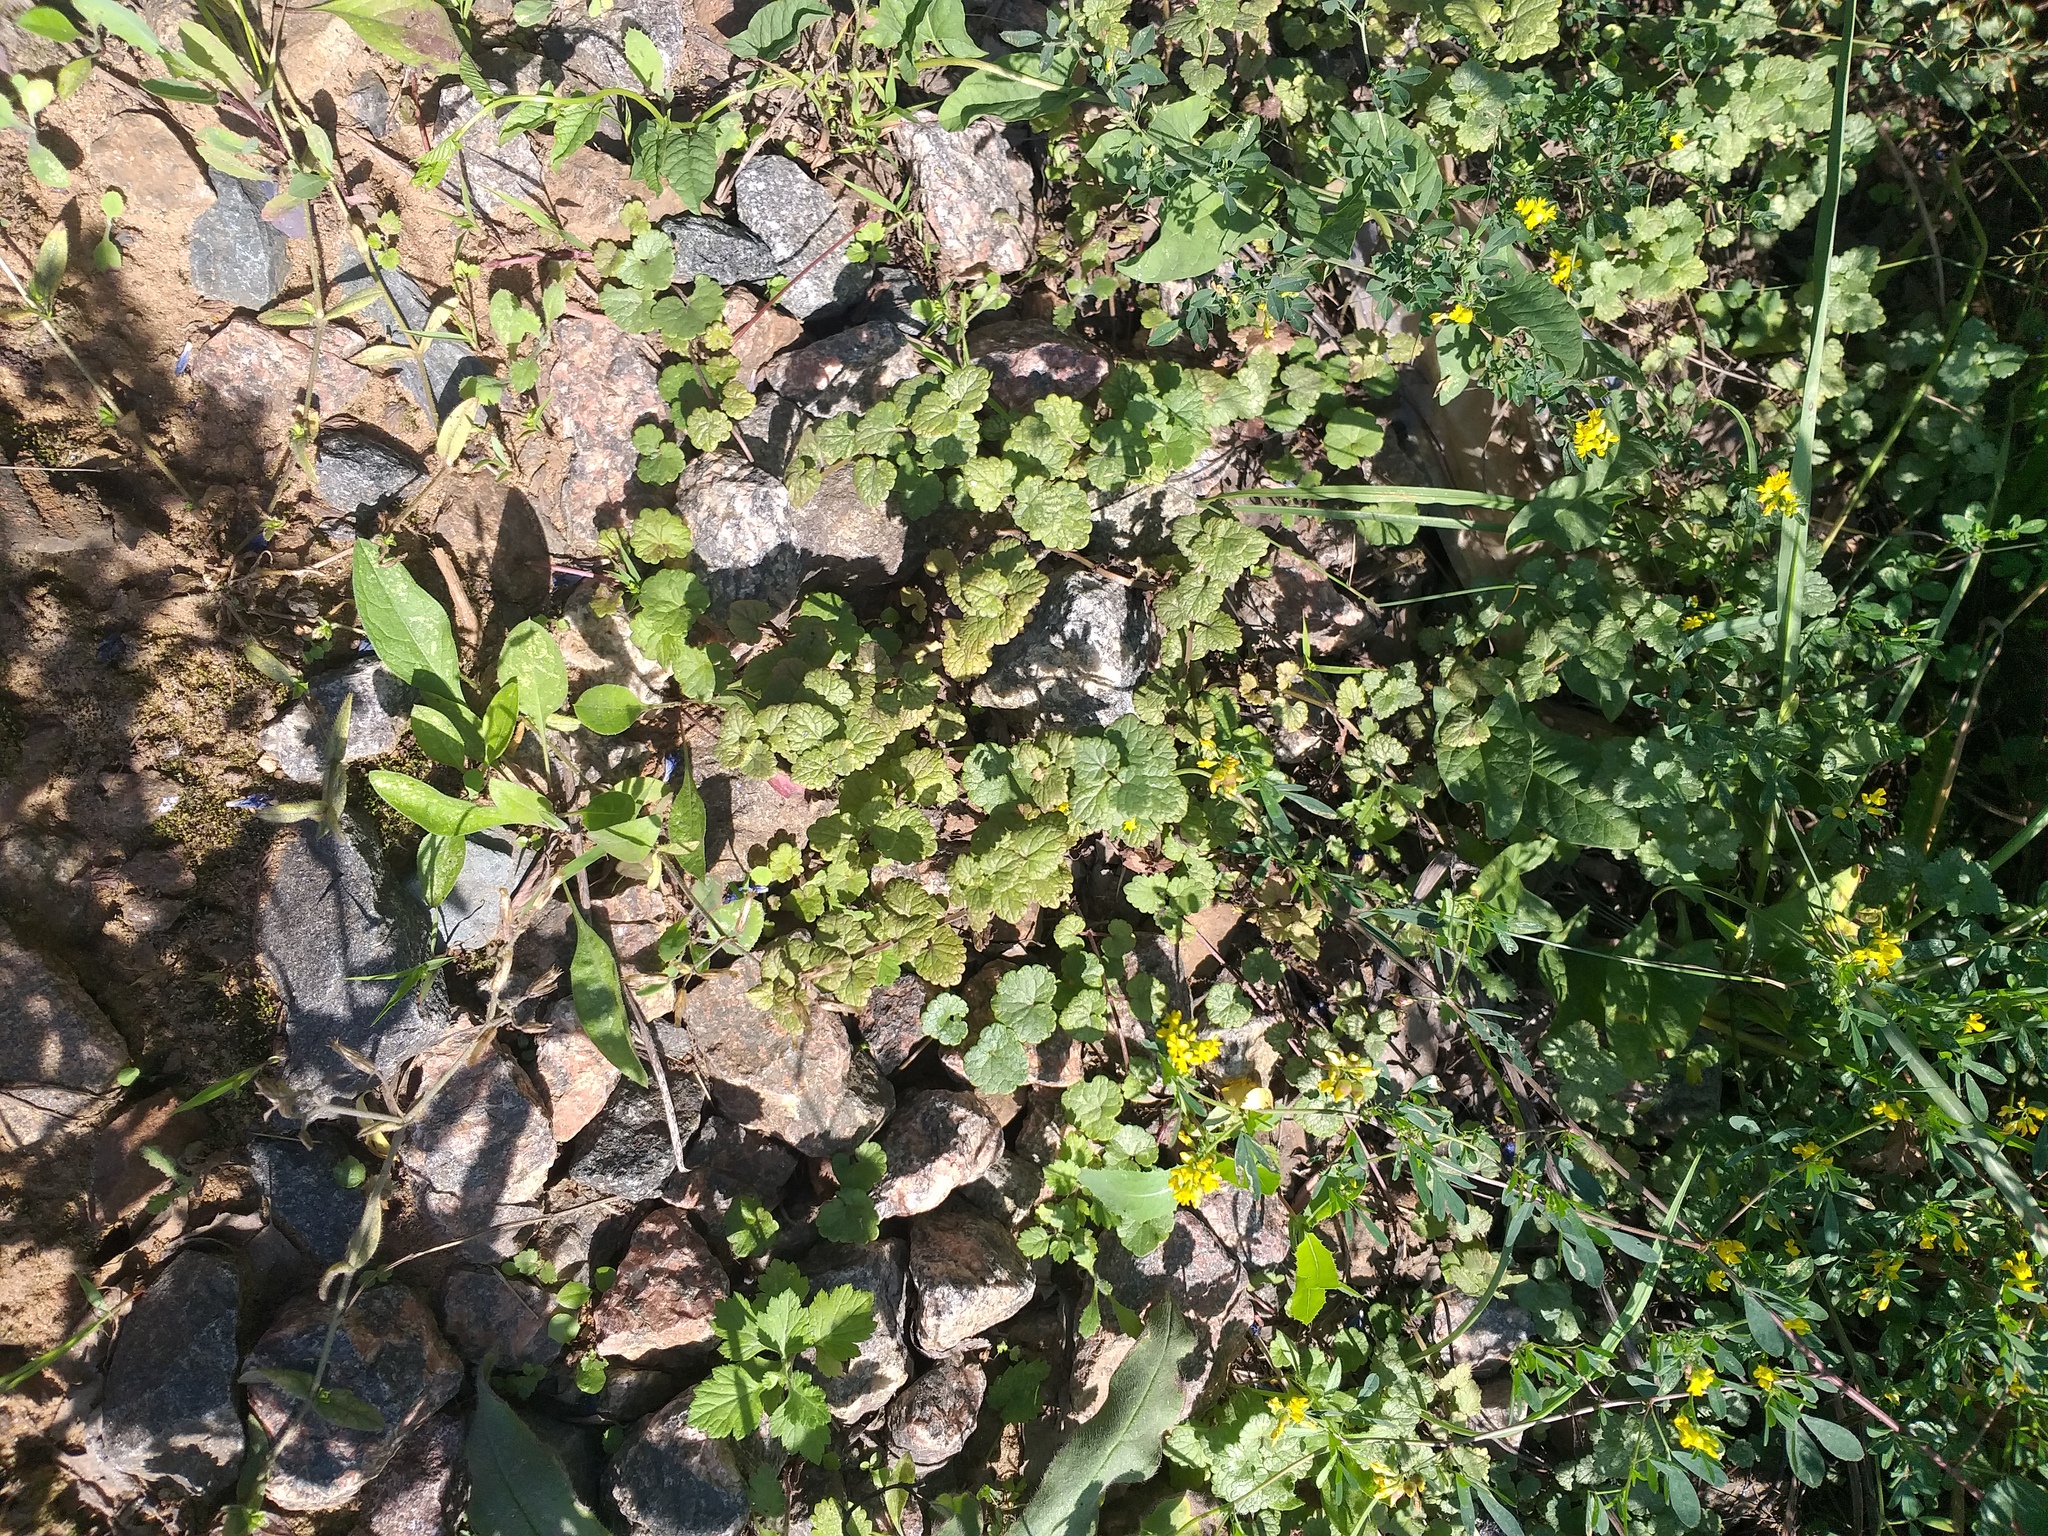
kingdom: Plantae
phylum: Tracheophyta
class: Magnoliopsida
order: Lamiales
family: Lamiaceae
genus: Glechoma
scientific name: Glechoma hederacea
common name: Ground ivy
